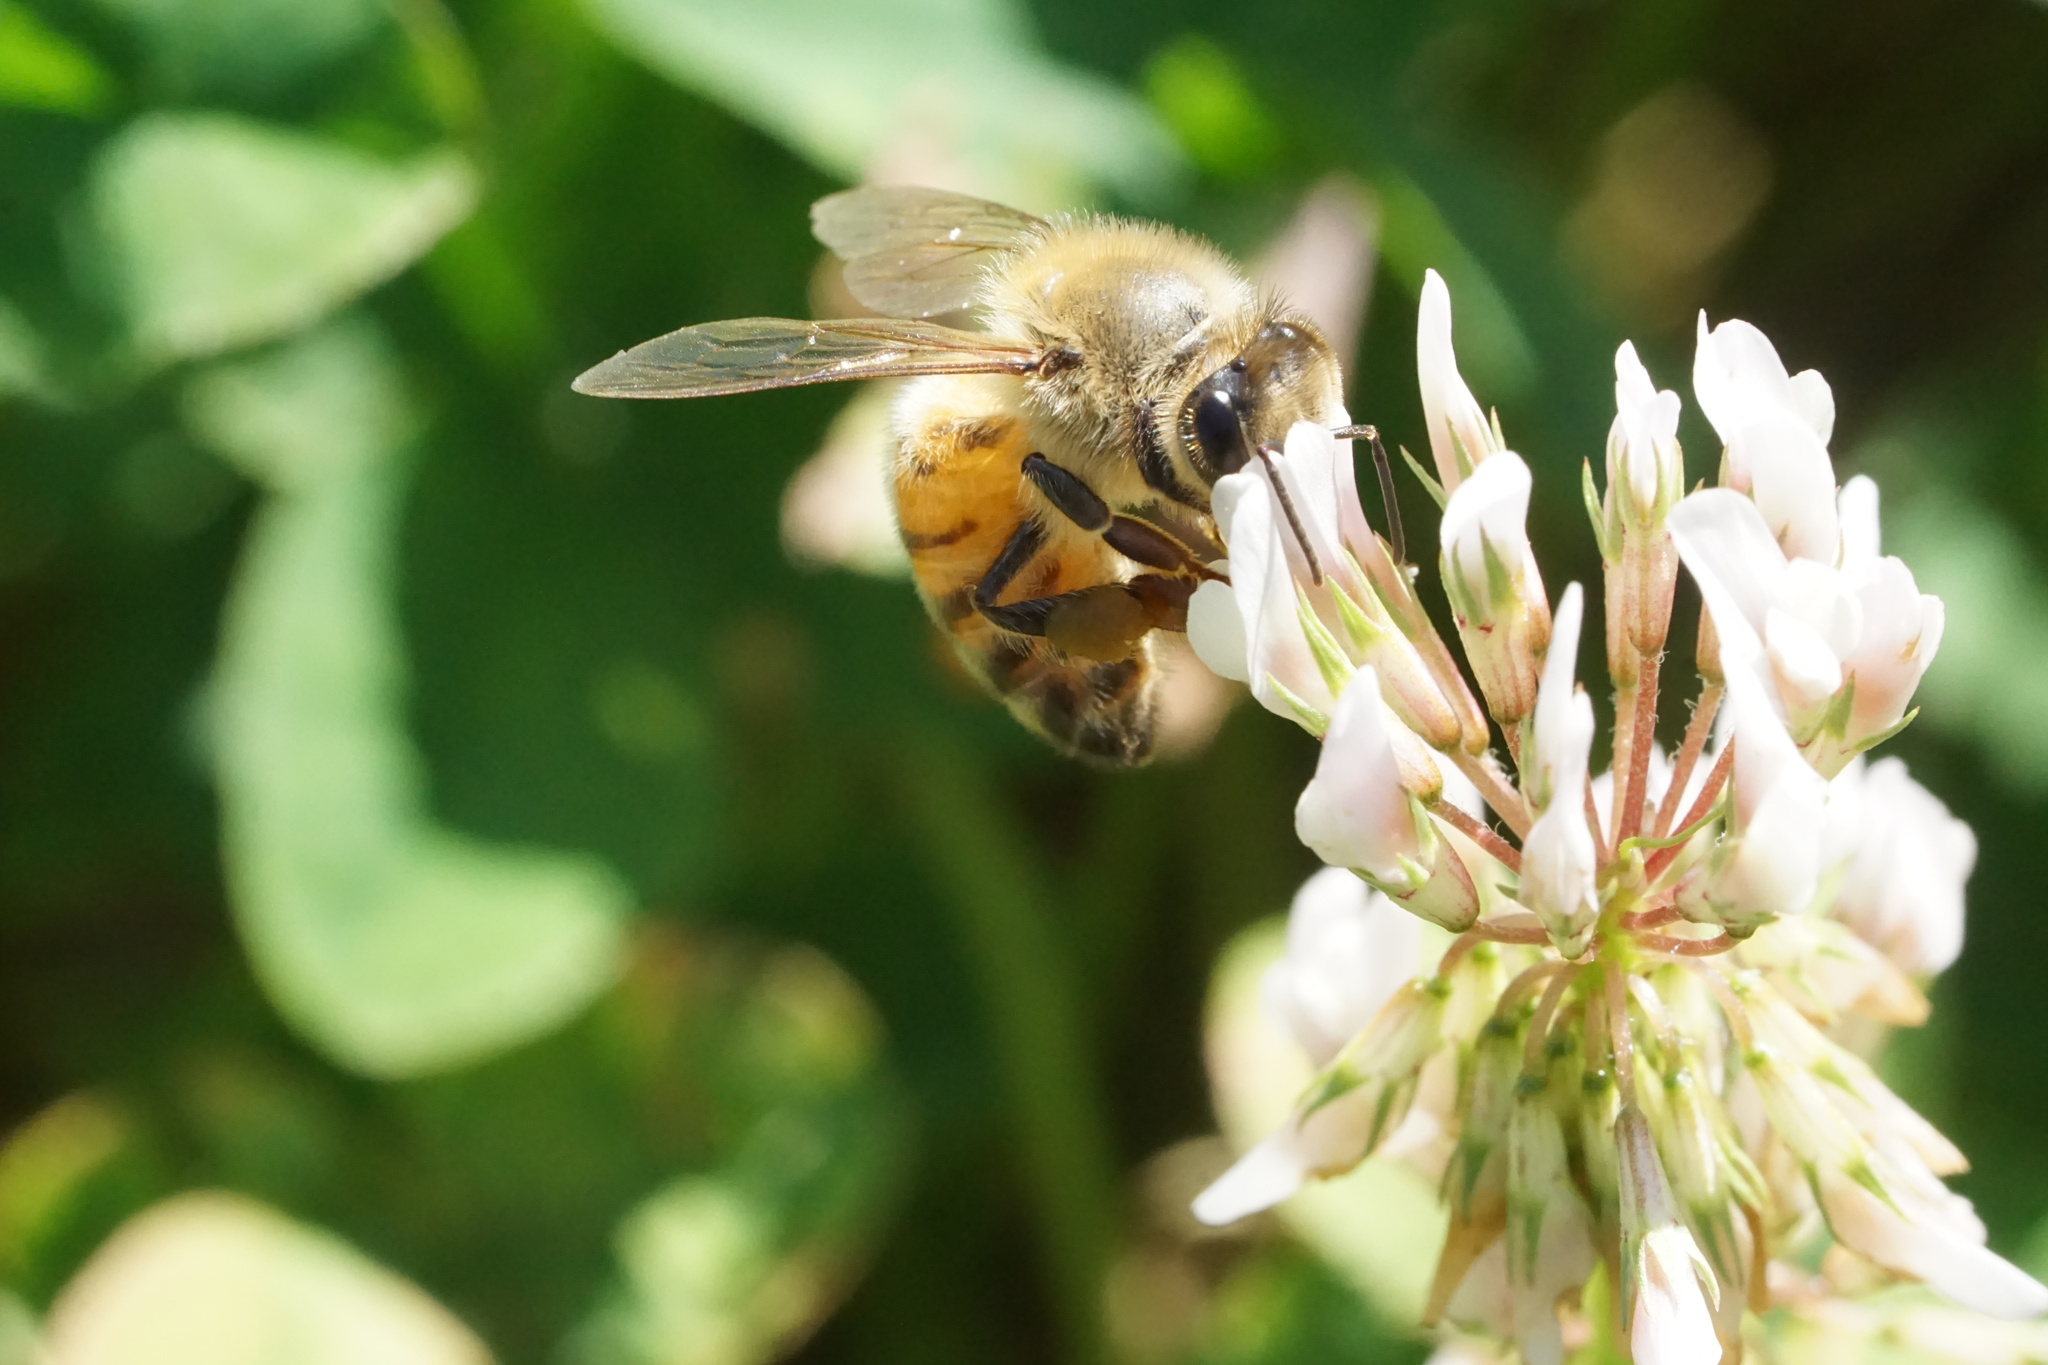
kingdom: Animalia
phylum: Arthropoda
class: Insecta
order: Hymenoptera
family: Apidae
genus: Apis
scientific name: Apis mellifera
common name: Honey bee
